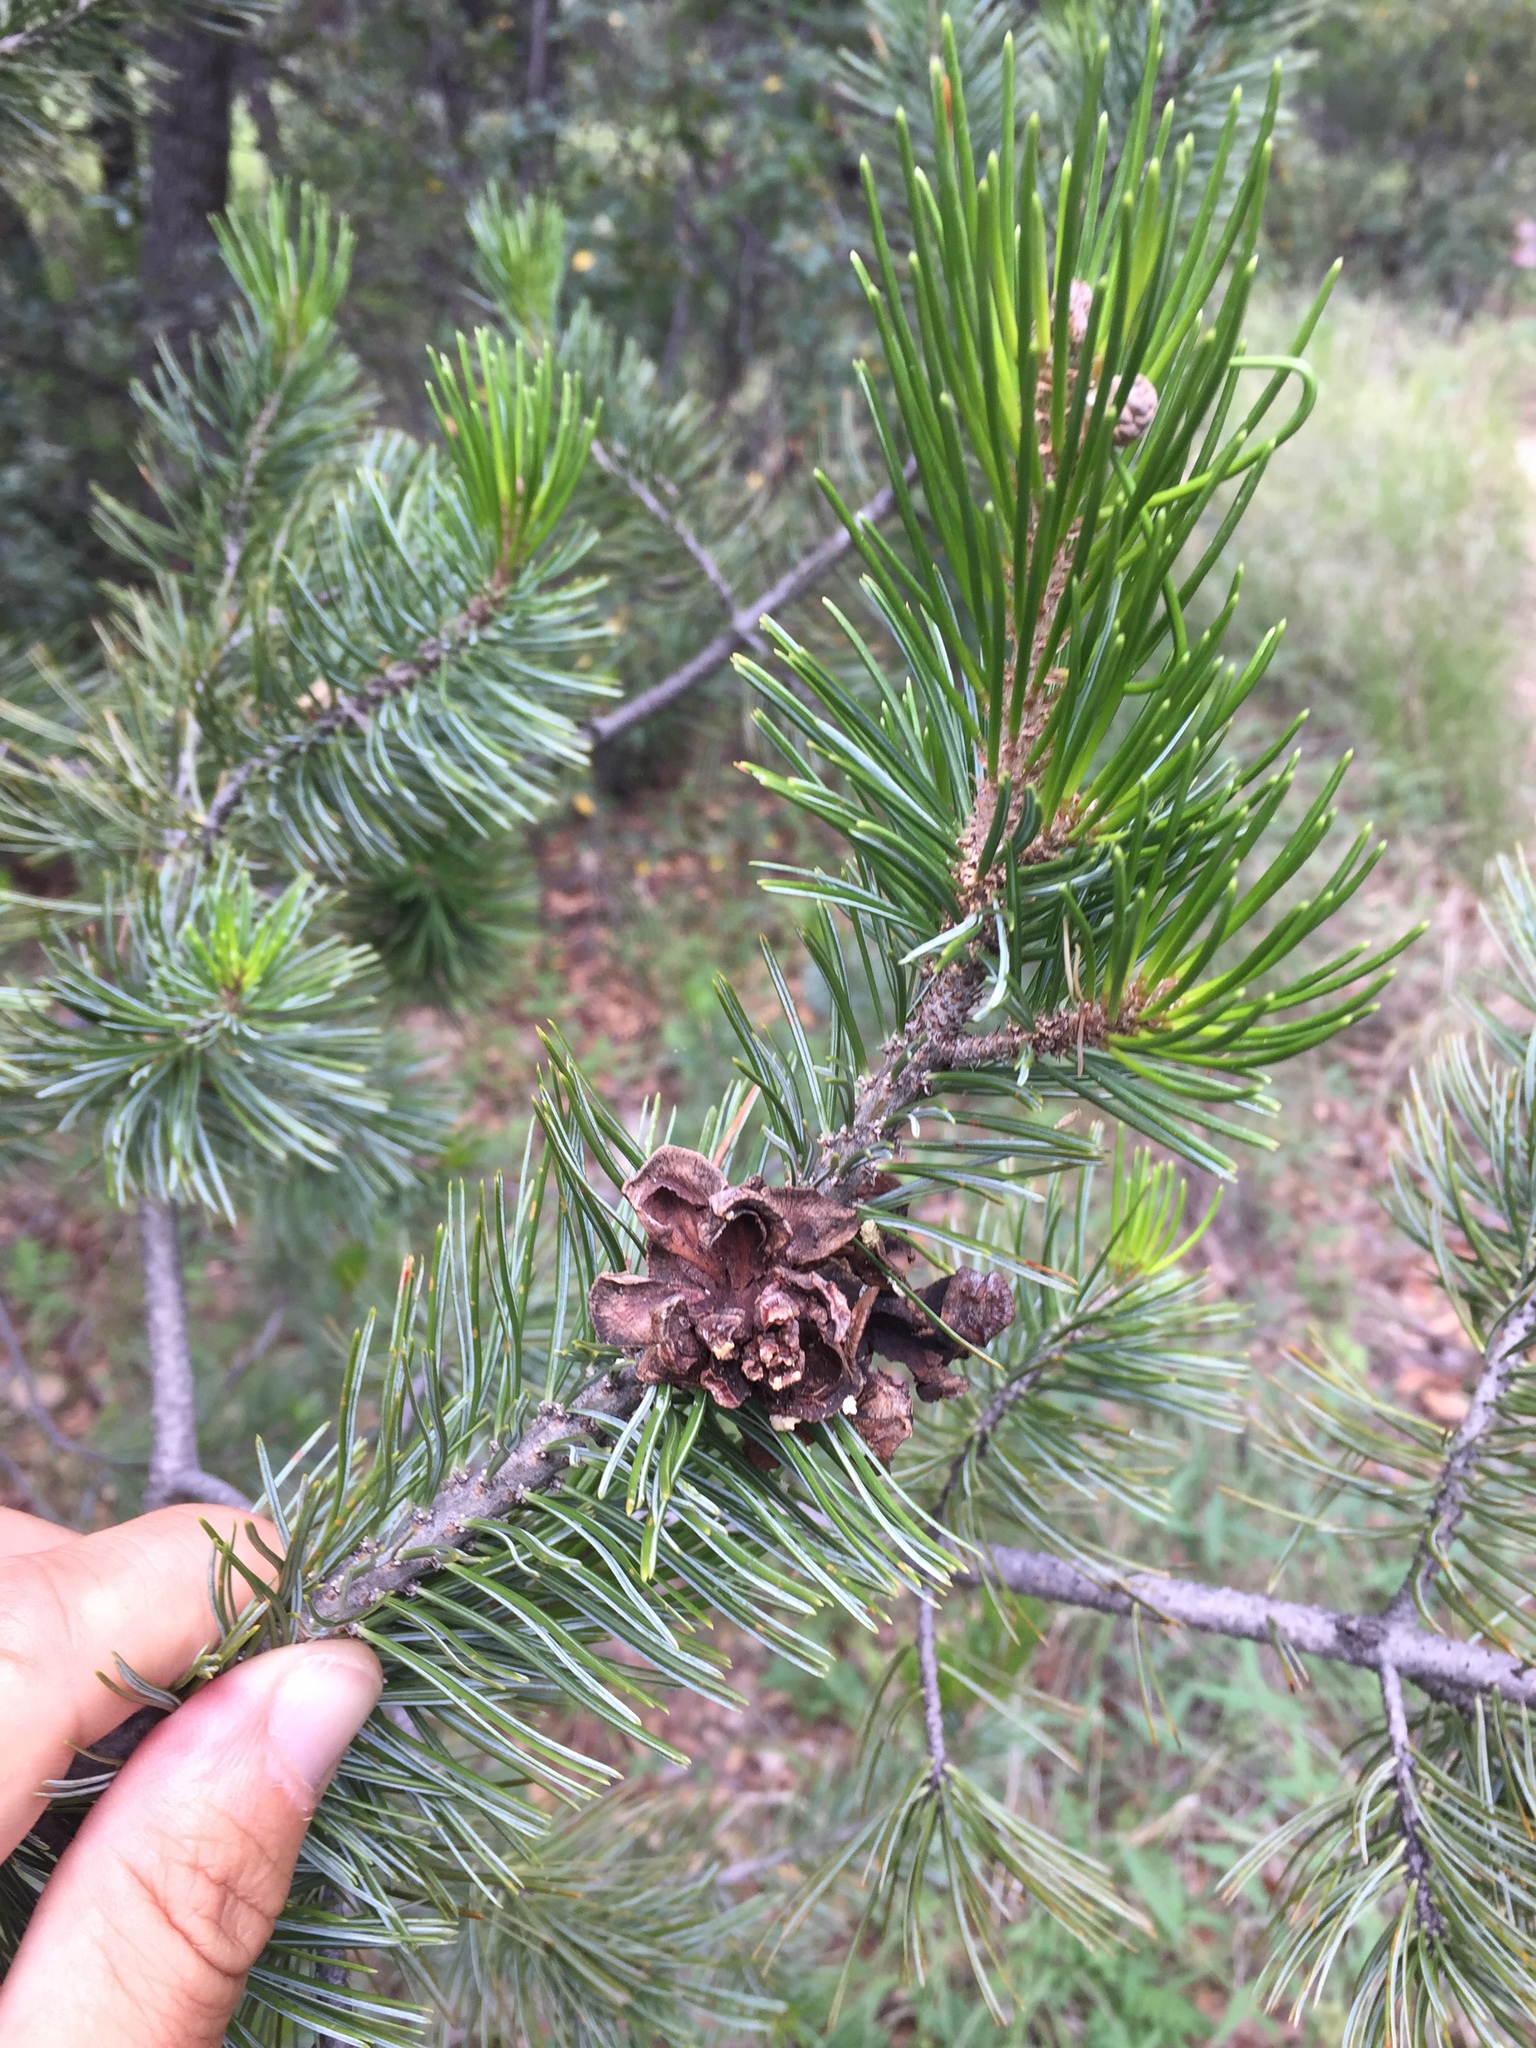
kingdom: Plantae
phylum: Tracheophyta
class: Pinopsida
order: Pinales
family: Pinaceae
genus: Pinus
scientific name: Pinus discolor
